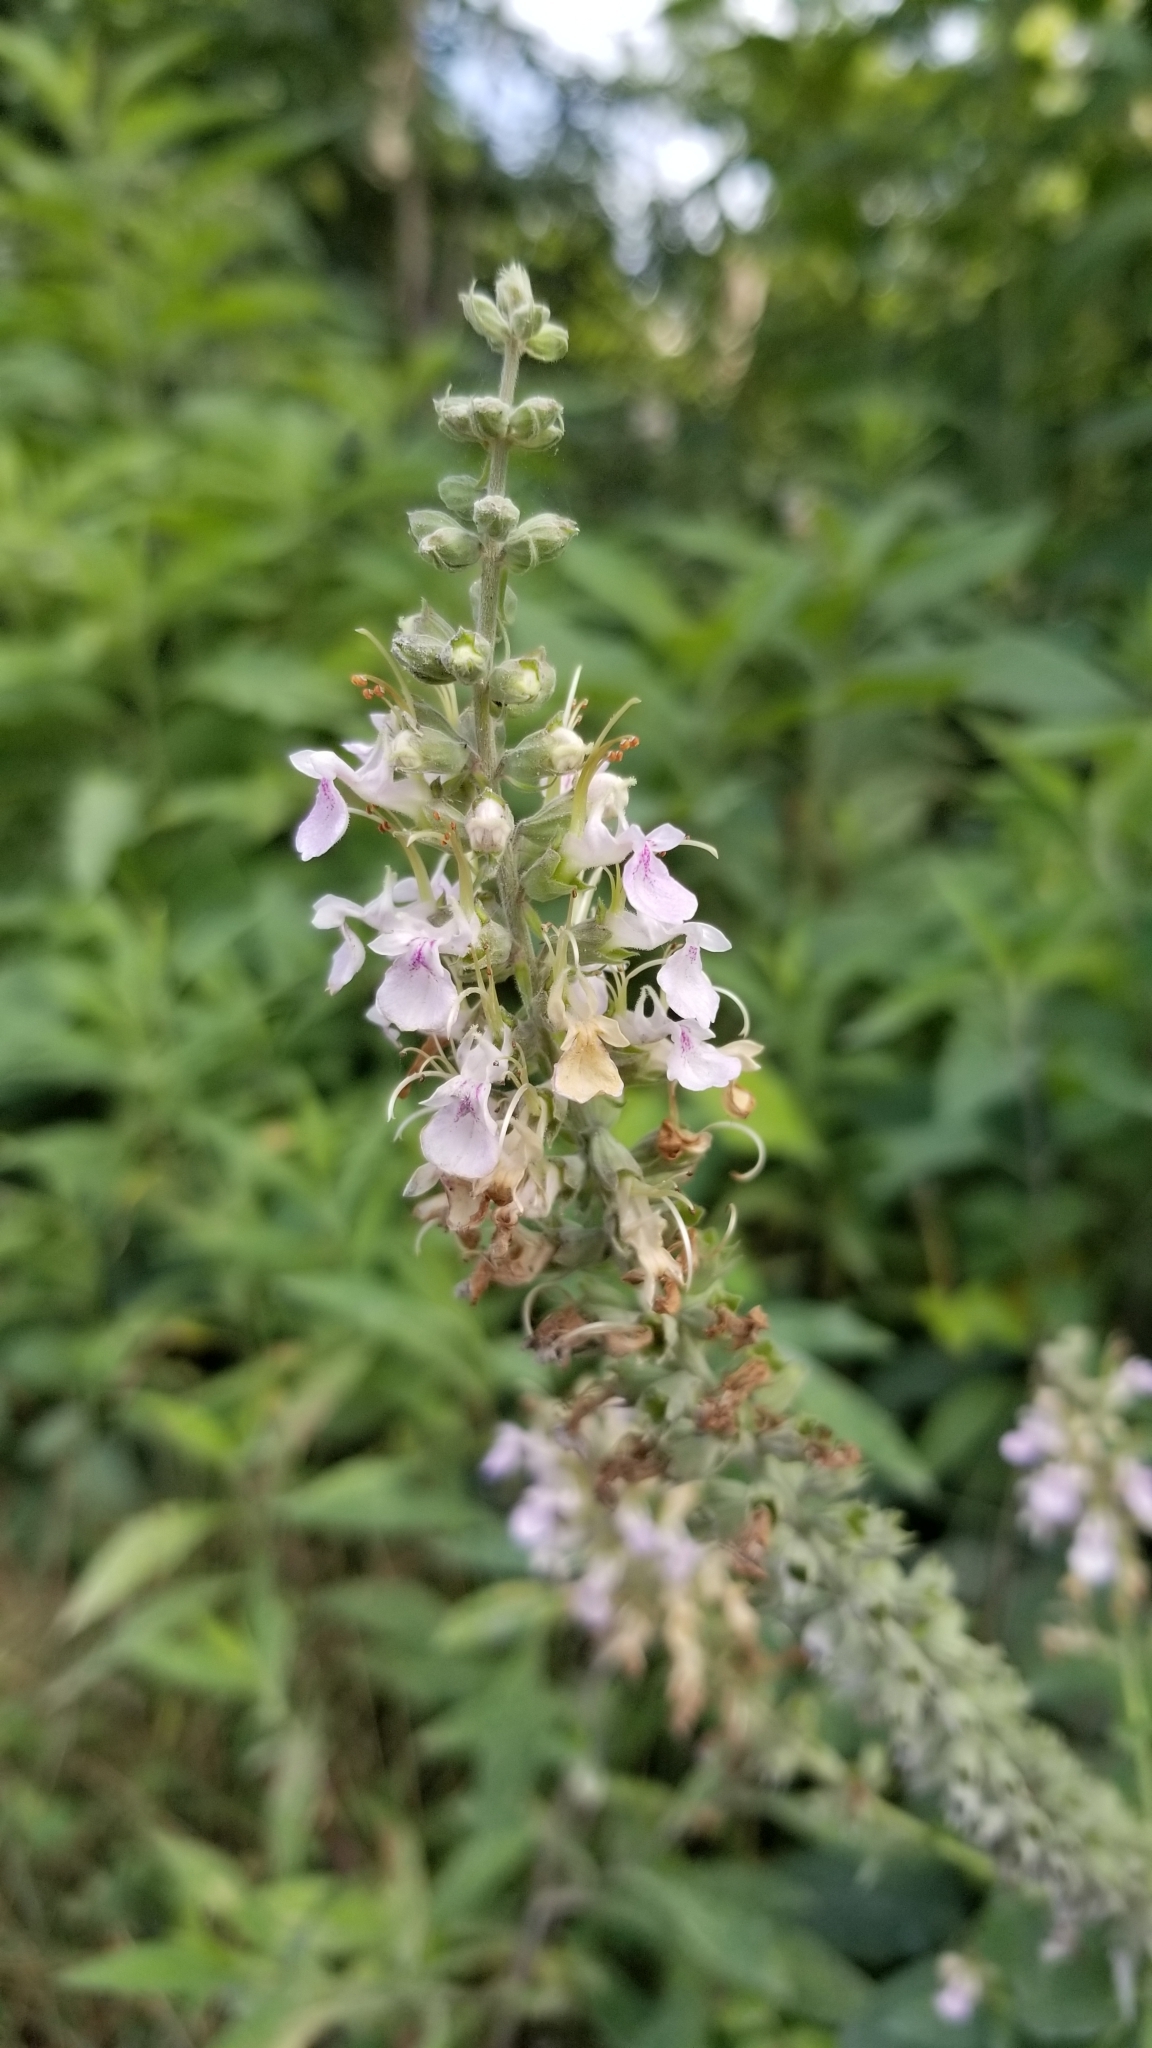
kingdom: Plantae
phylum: Tracheophyta
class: Magnoliopsida
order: Lamiales
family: Lamiaceae
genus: Teucrium
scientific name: Teucrium canadense
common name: American germander
